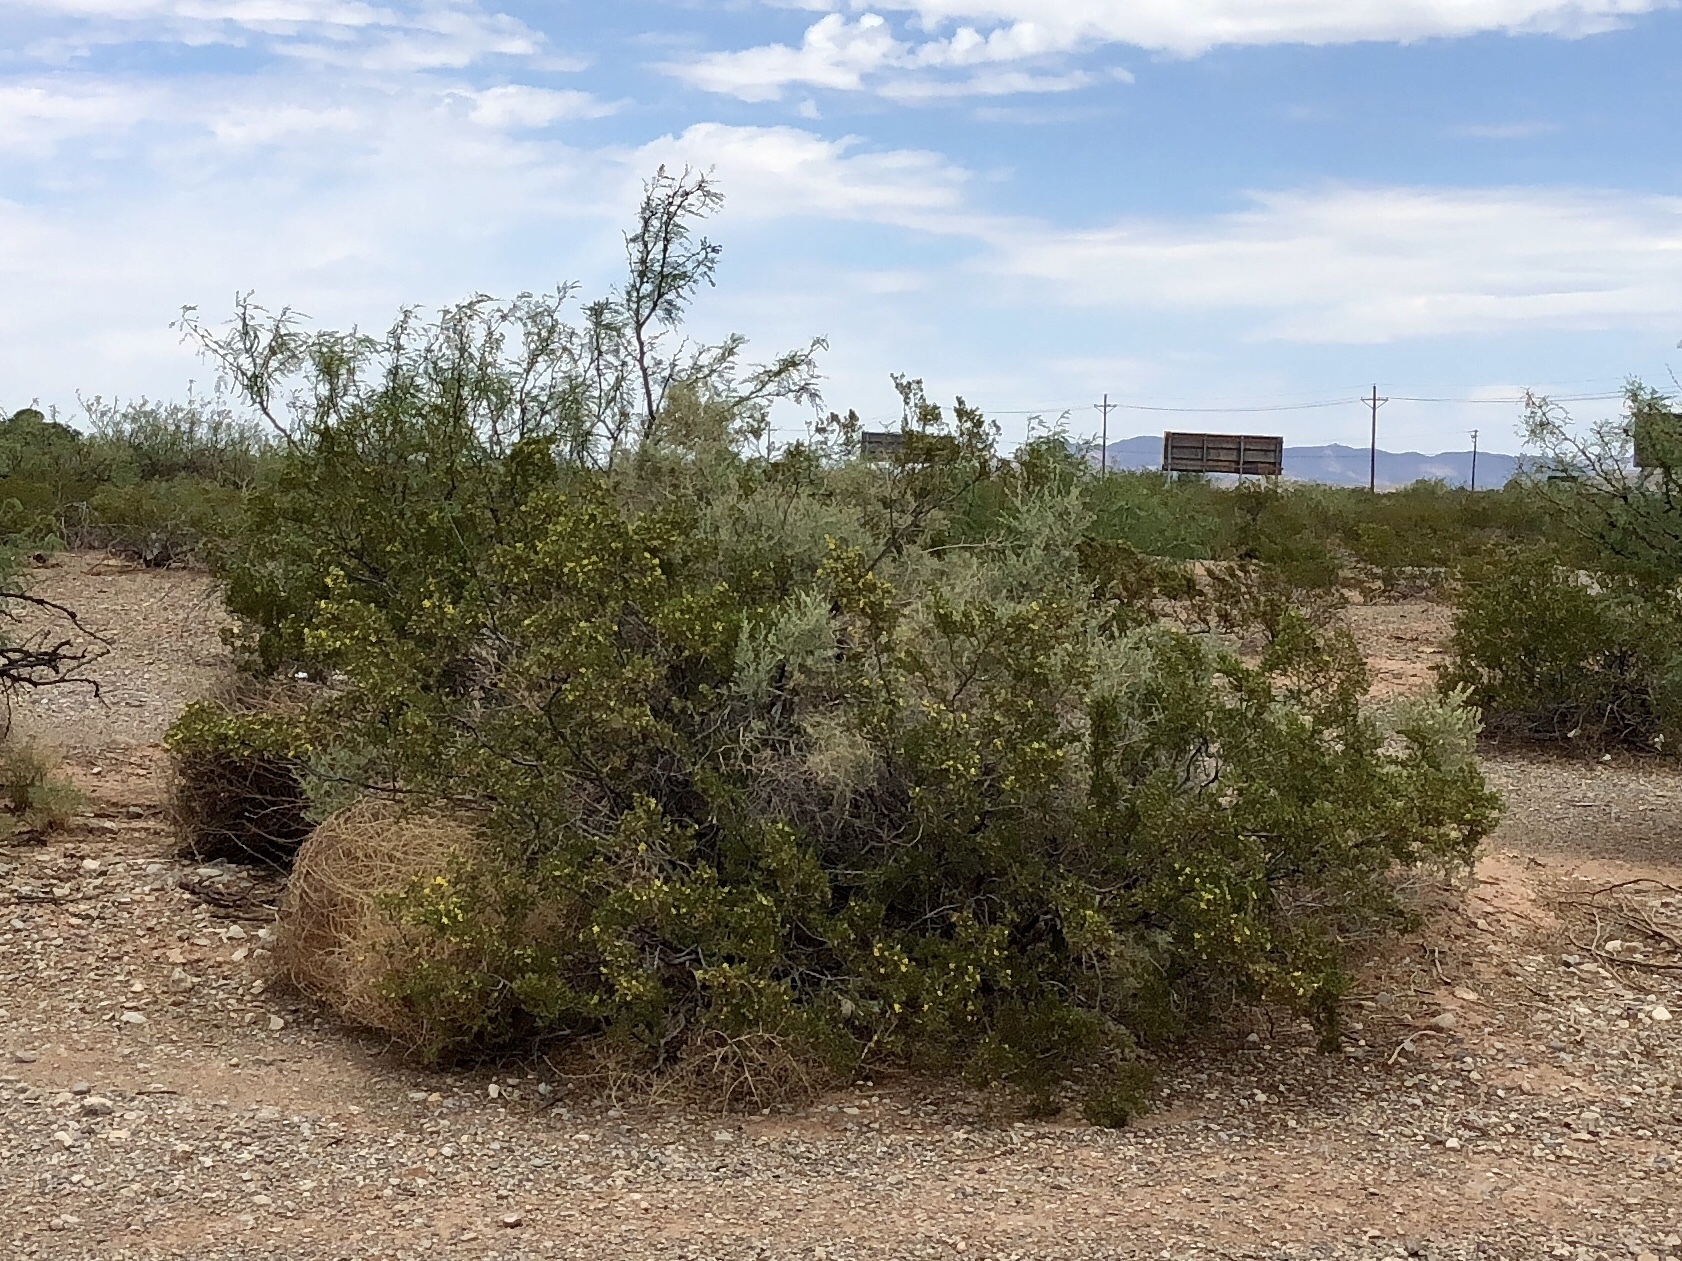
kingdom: Plantae
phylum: Tracheophyta
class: Magnoliopsida
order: Zygophyllales
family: Zygophyllaceae
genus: Larrea
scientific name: Larrea tridentata
